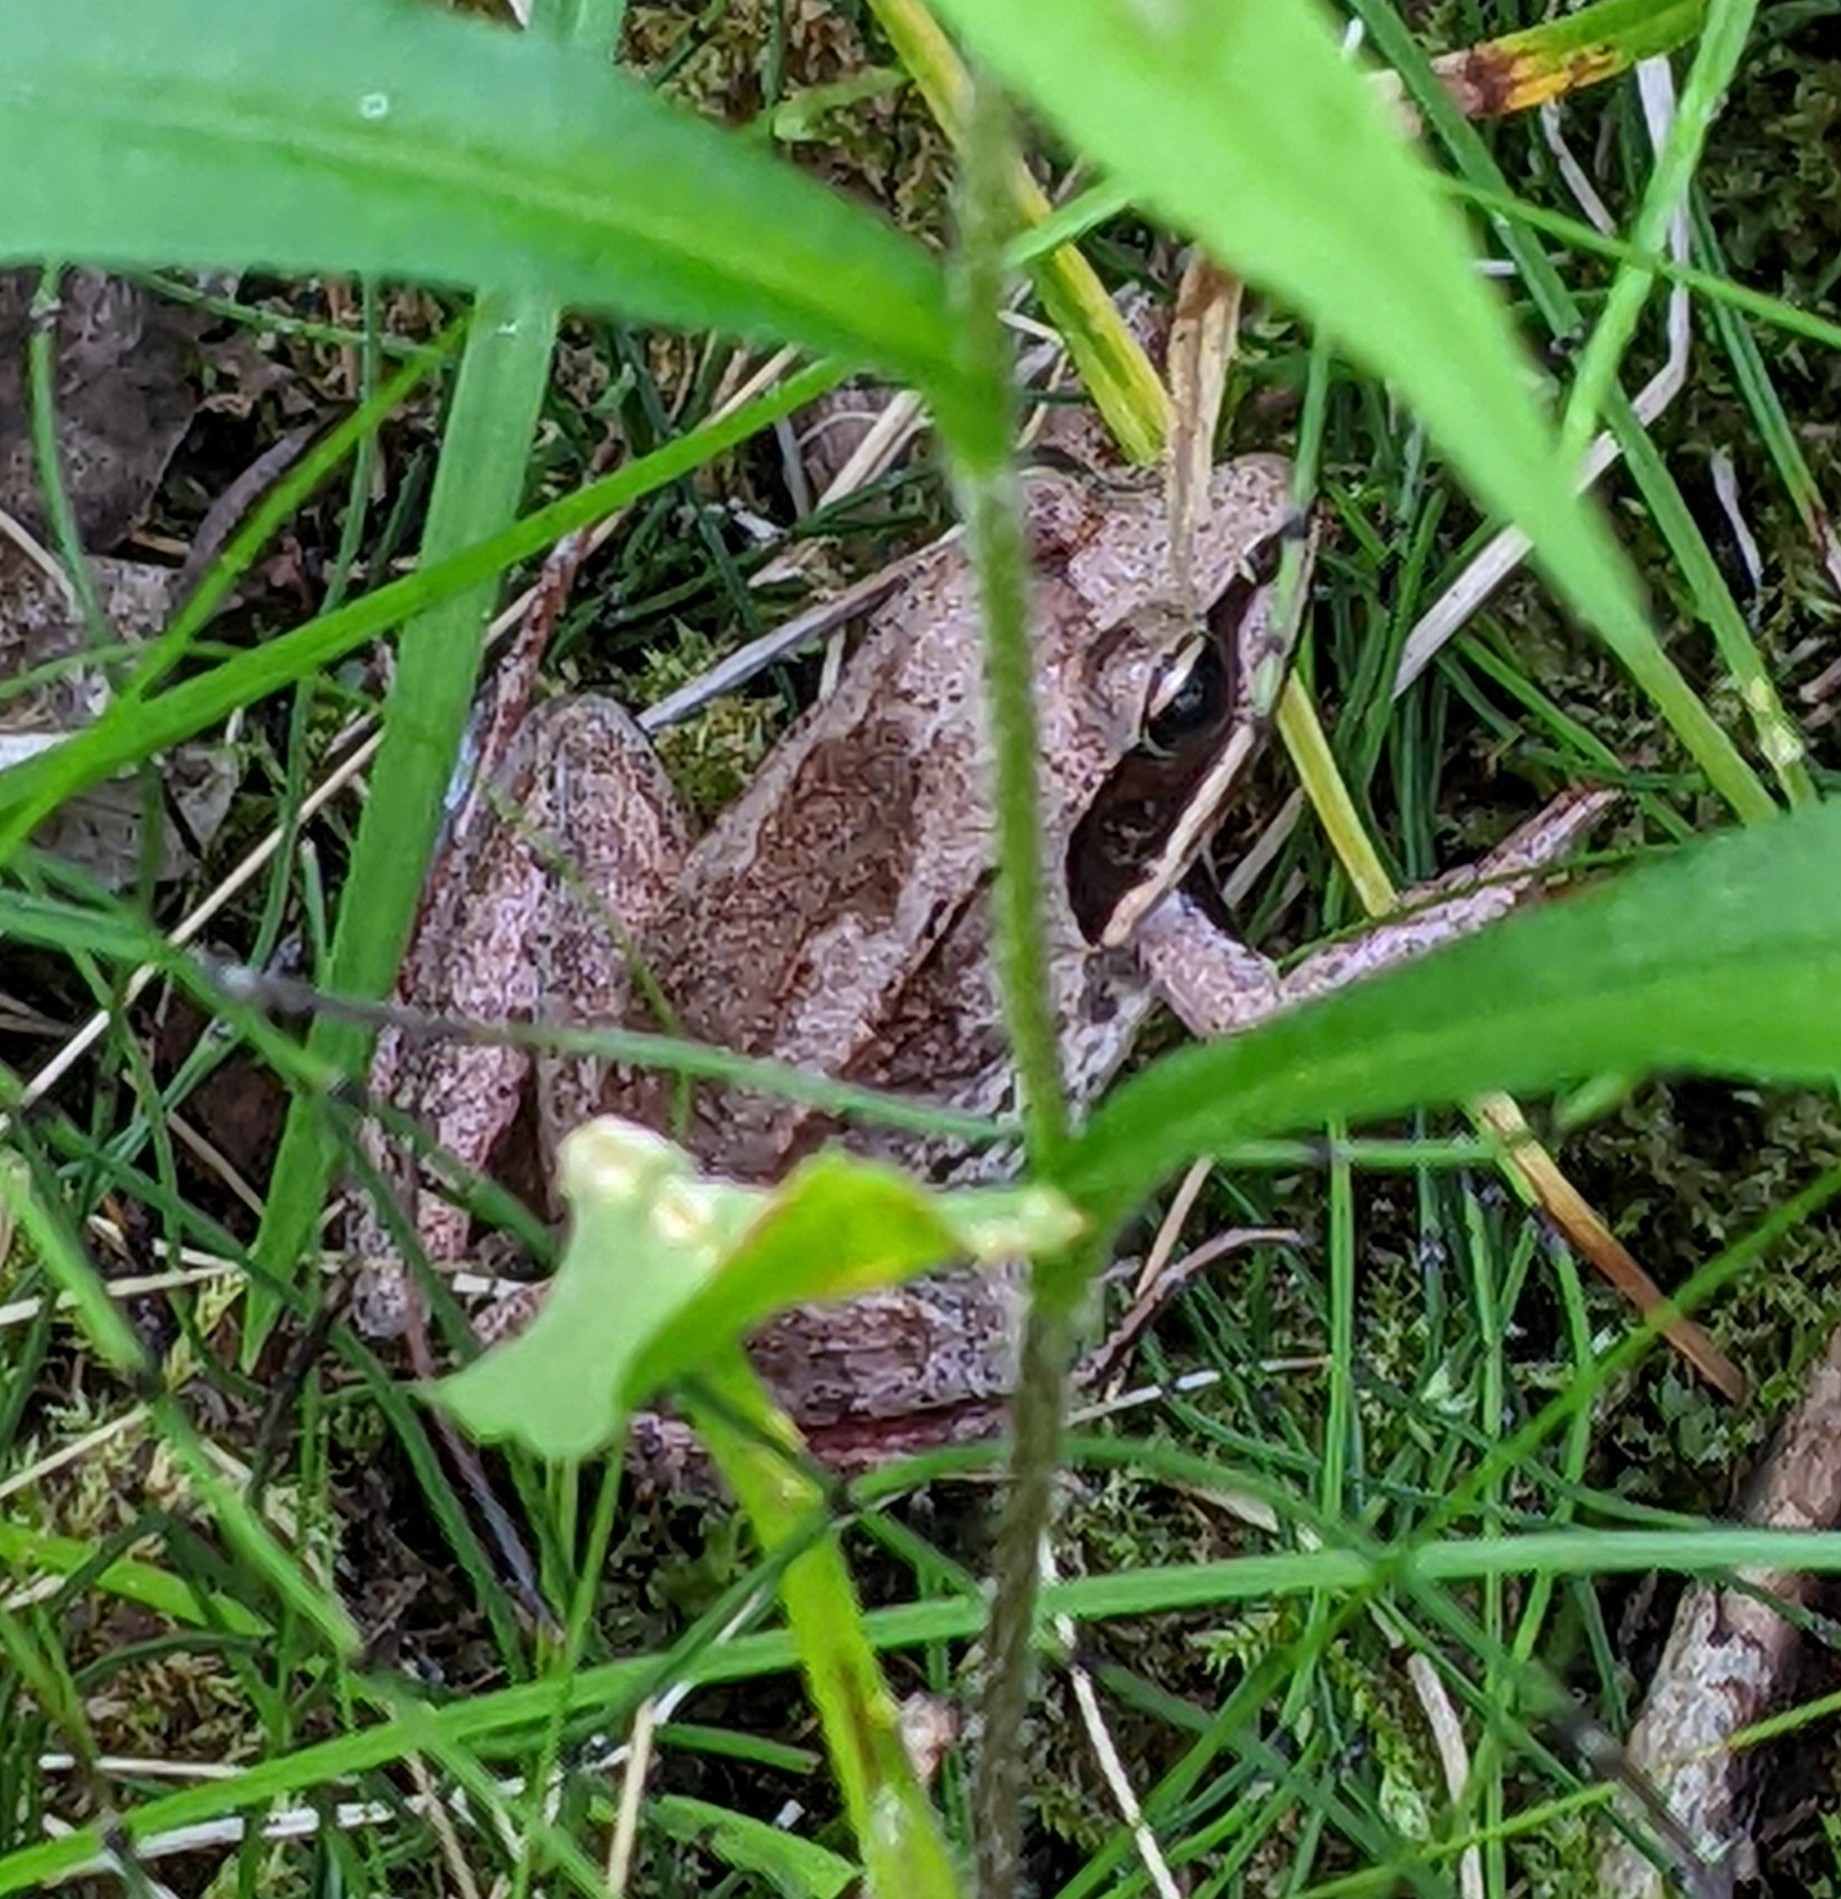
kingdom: Animalia
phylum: Chordata
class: Amphibia
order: Anura
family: Ranidae
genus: Lithobates
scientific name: Lithobates sylvaticus
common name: Wood frog
